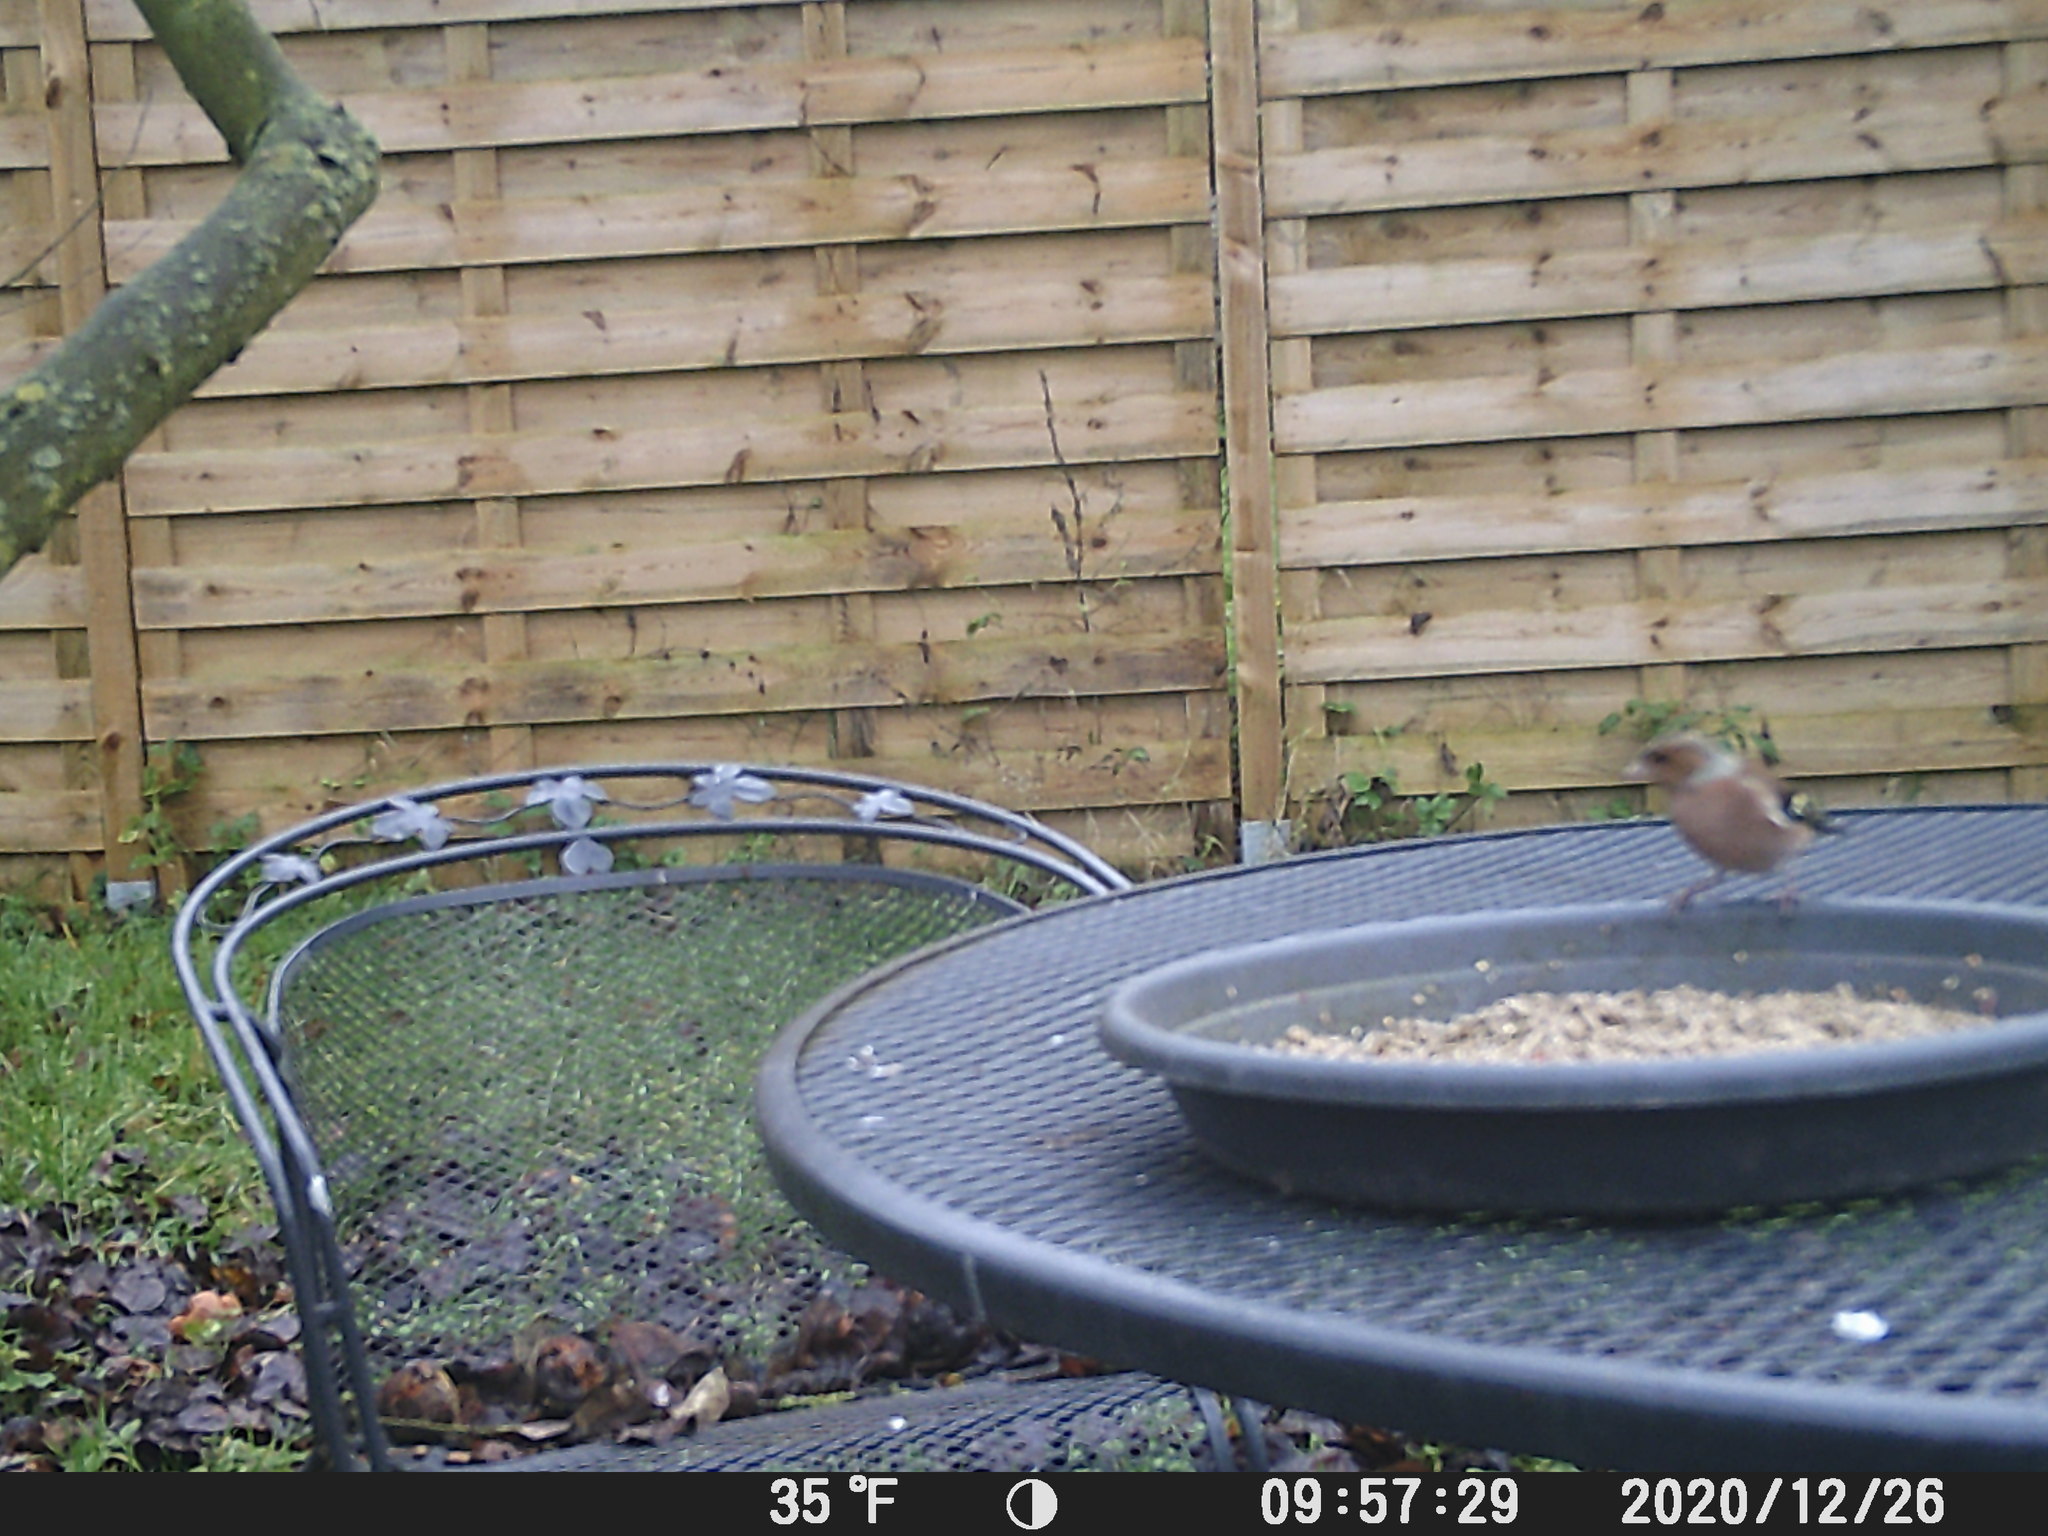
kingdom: Animalia
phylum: Chordata
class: Aves
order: Passeriformes
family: Fringillidae
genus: Fringilla
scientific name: Fringilla coelebs
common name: Common chaffinch
